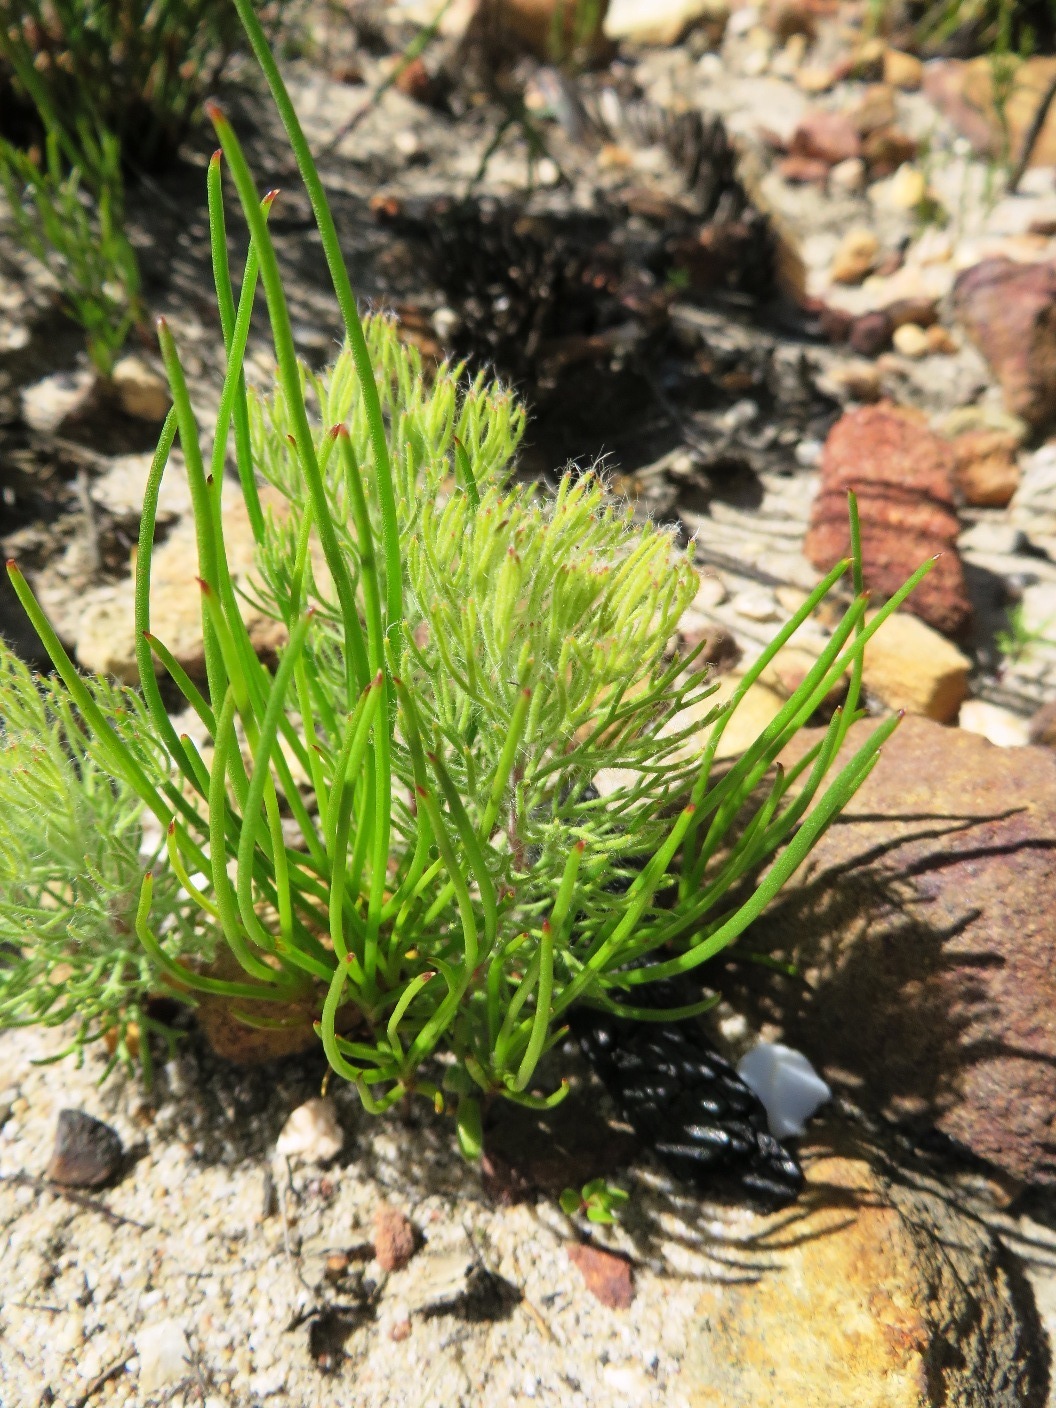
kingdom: Plantae
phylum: Tracheophyta
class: Magnoliopsida
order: Proteales
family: Proteaceae
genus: Serruria
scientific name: Serruria kraussii
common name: Snowball spiderhead
